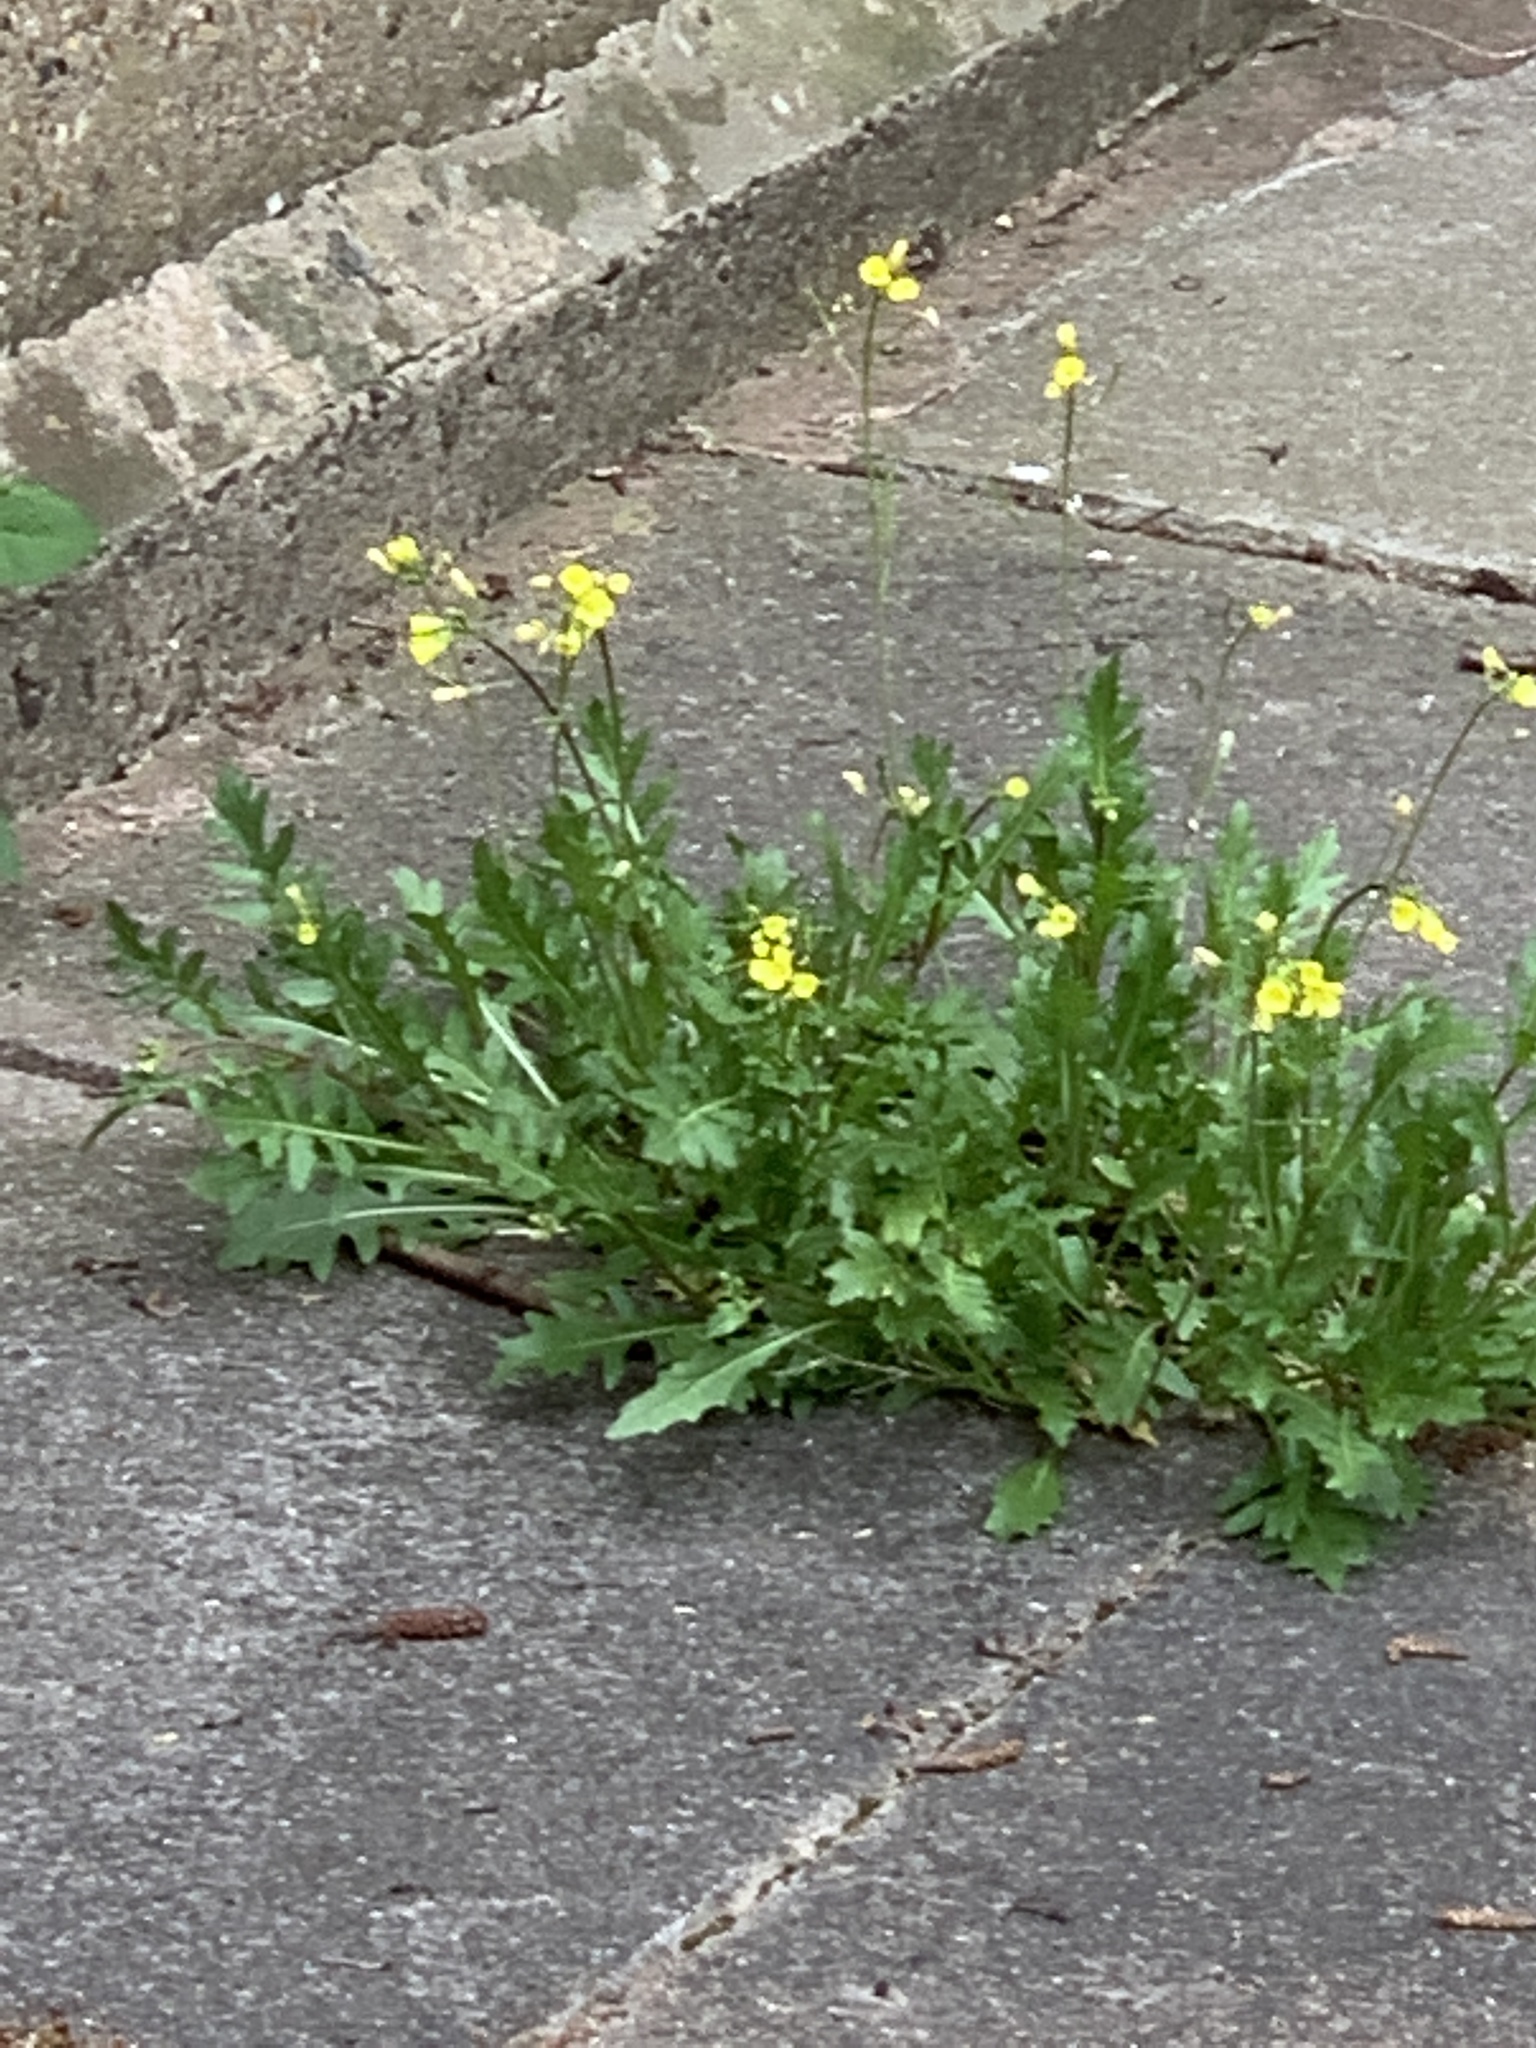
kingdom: Plantae
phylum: Tracheophyta
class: Magnoliopsida
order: Brassicales
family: Brassicaceae
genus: Diplotaxis
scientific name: Diplotaxis muralis
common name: Annual wall-rocket
